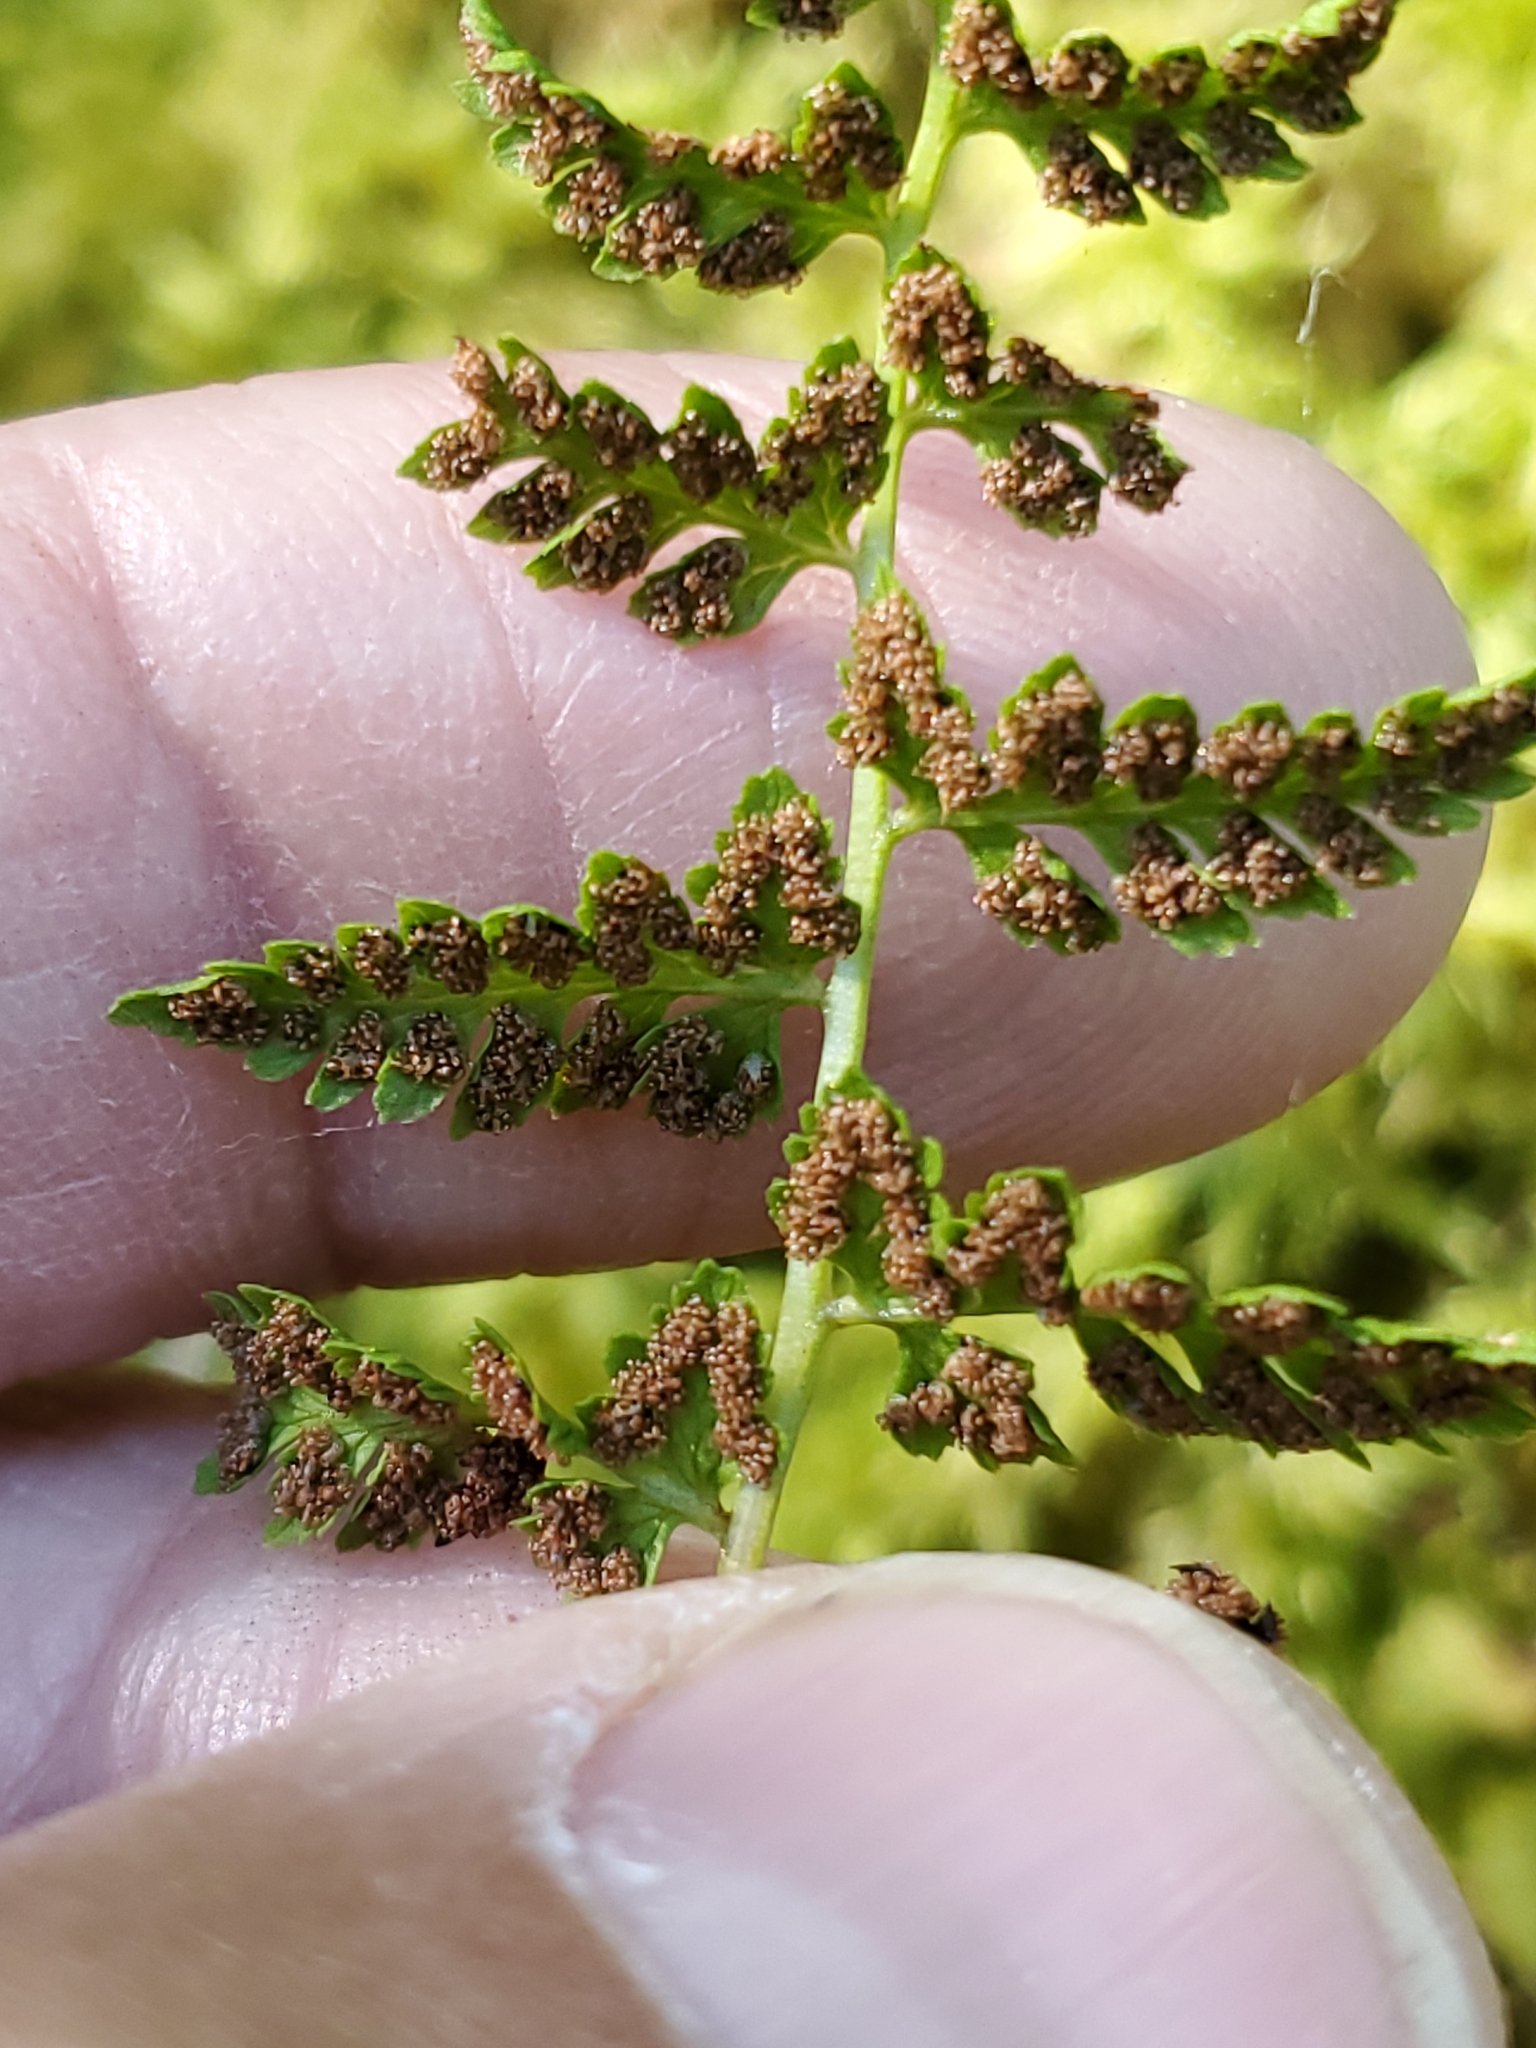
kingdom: Plantae
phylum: Tracheophyta
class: Polypodiopsida
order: Polypodiales
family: Cystopteridaceae
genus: Cystopteris
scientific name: Cystopteris fragilis
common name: Brittle bladder fern
